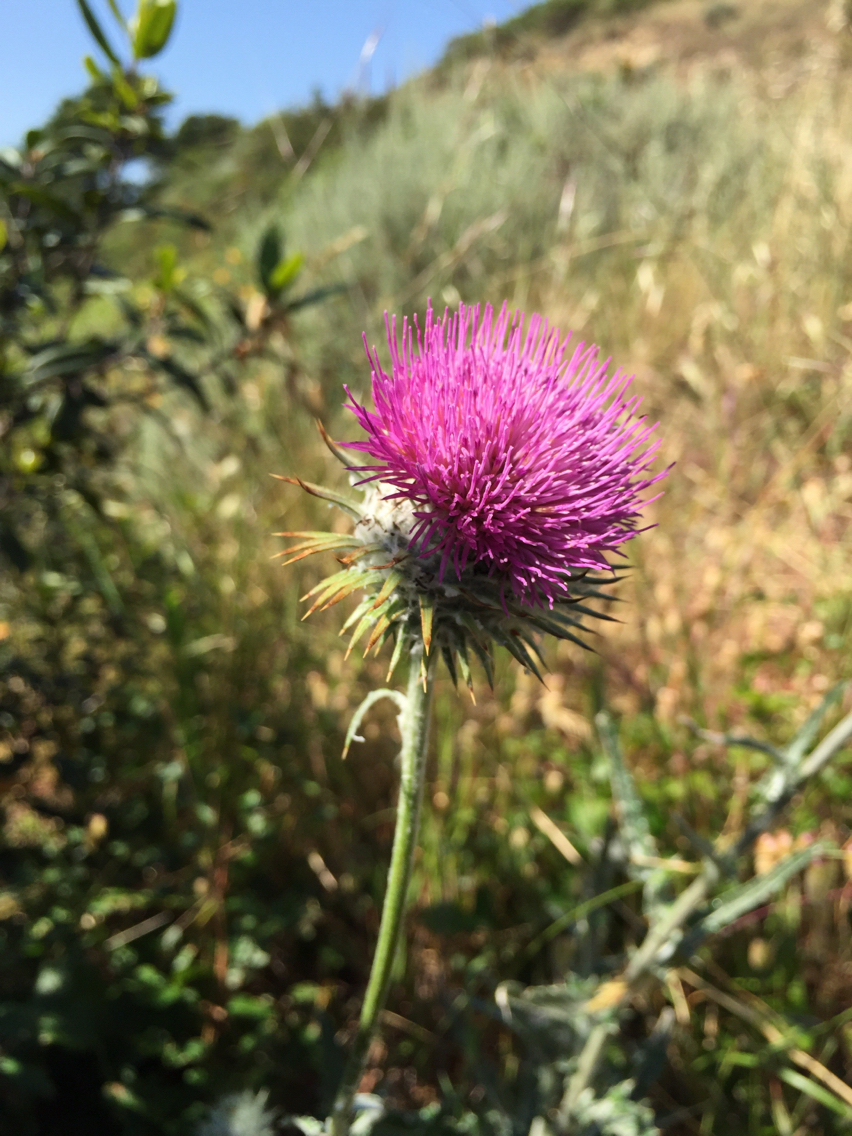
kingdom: Plantae
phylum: Tracheophyta
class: Magnoliopsida
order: Asterales
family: Asteraceae
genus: Cirsium
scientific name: Cirsium occidentale
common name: Western thistle
